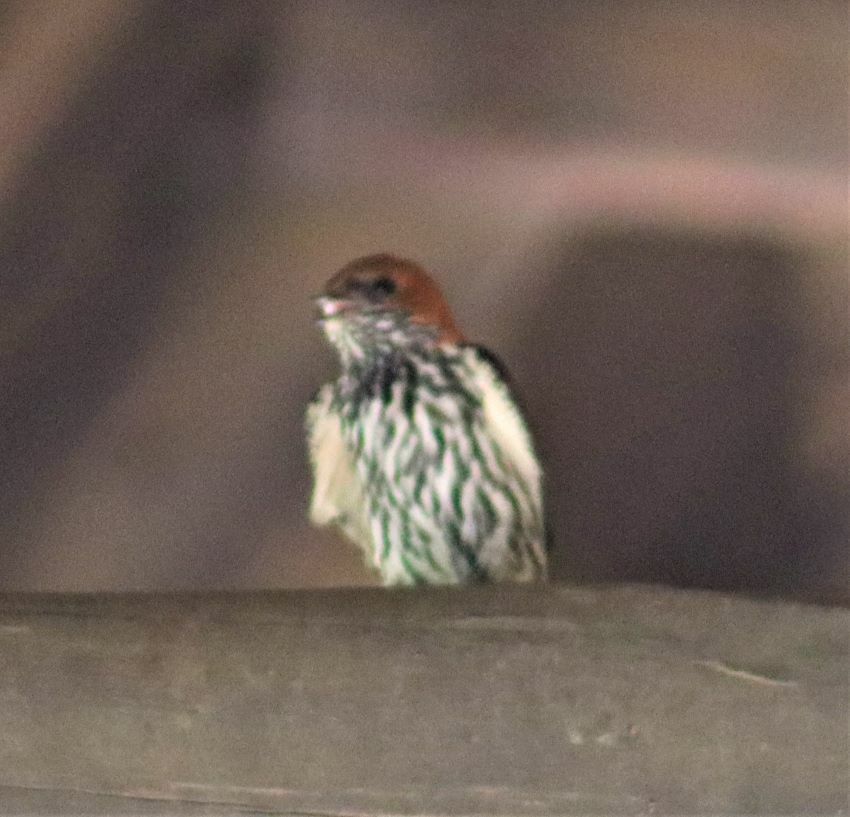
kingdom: Animalia
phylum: Chordata
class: Aves
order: Passeriformes
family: Hirundinidae
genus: Cecropis
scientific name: Cecropis abyssinica
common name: Lesser striped-swallow
